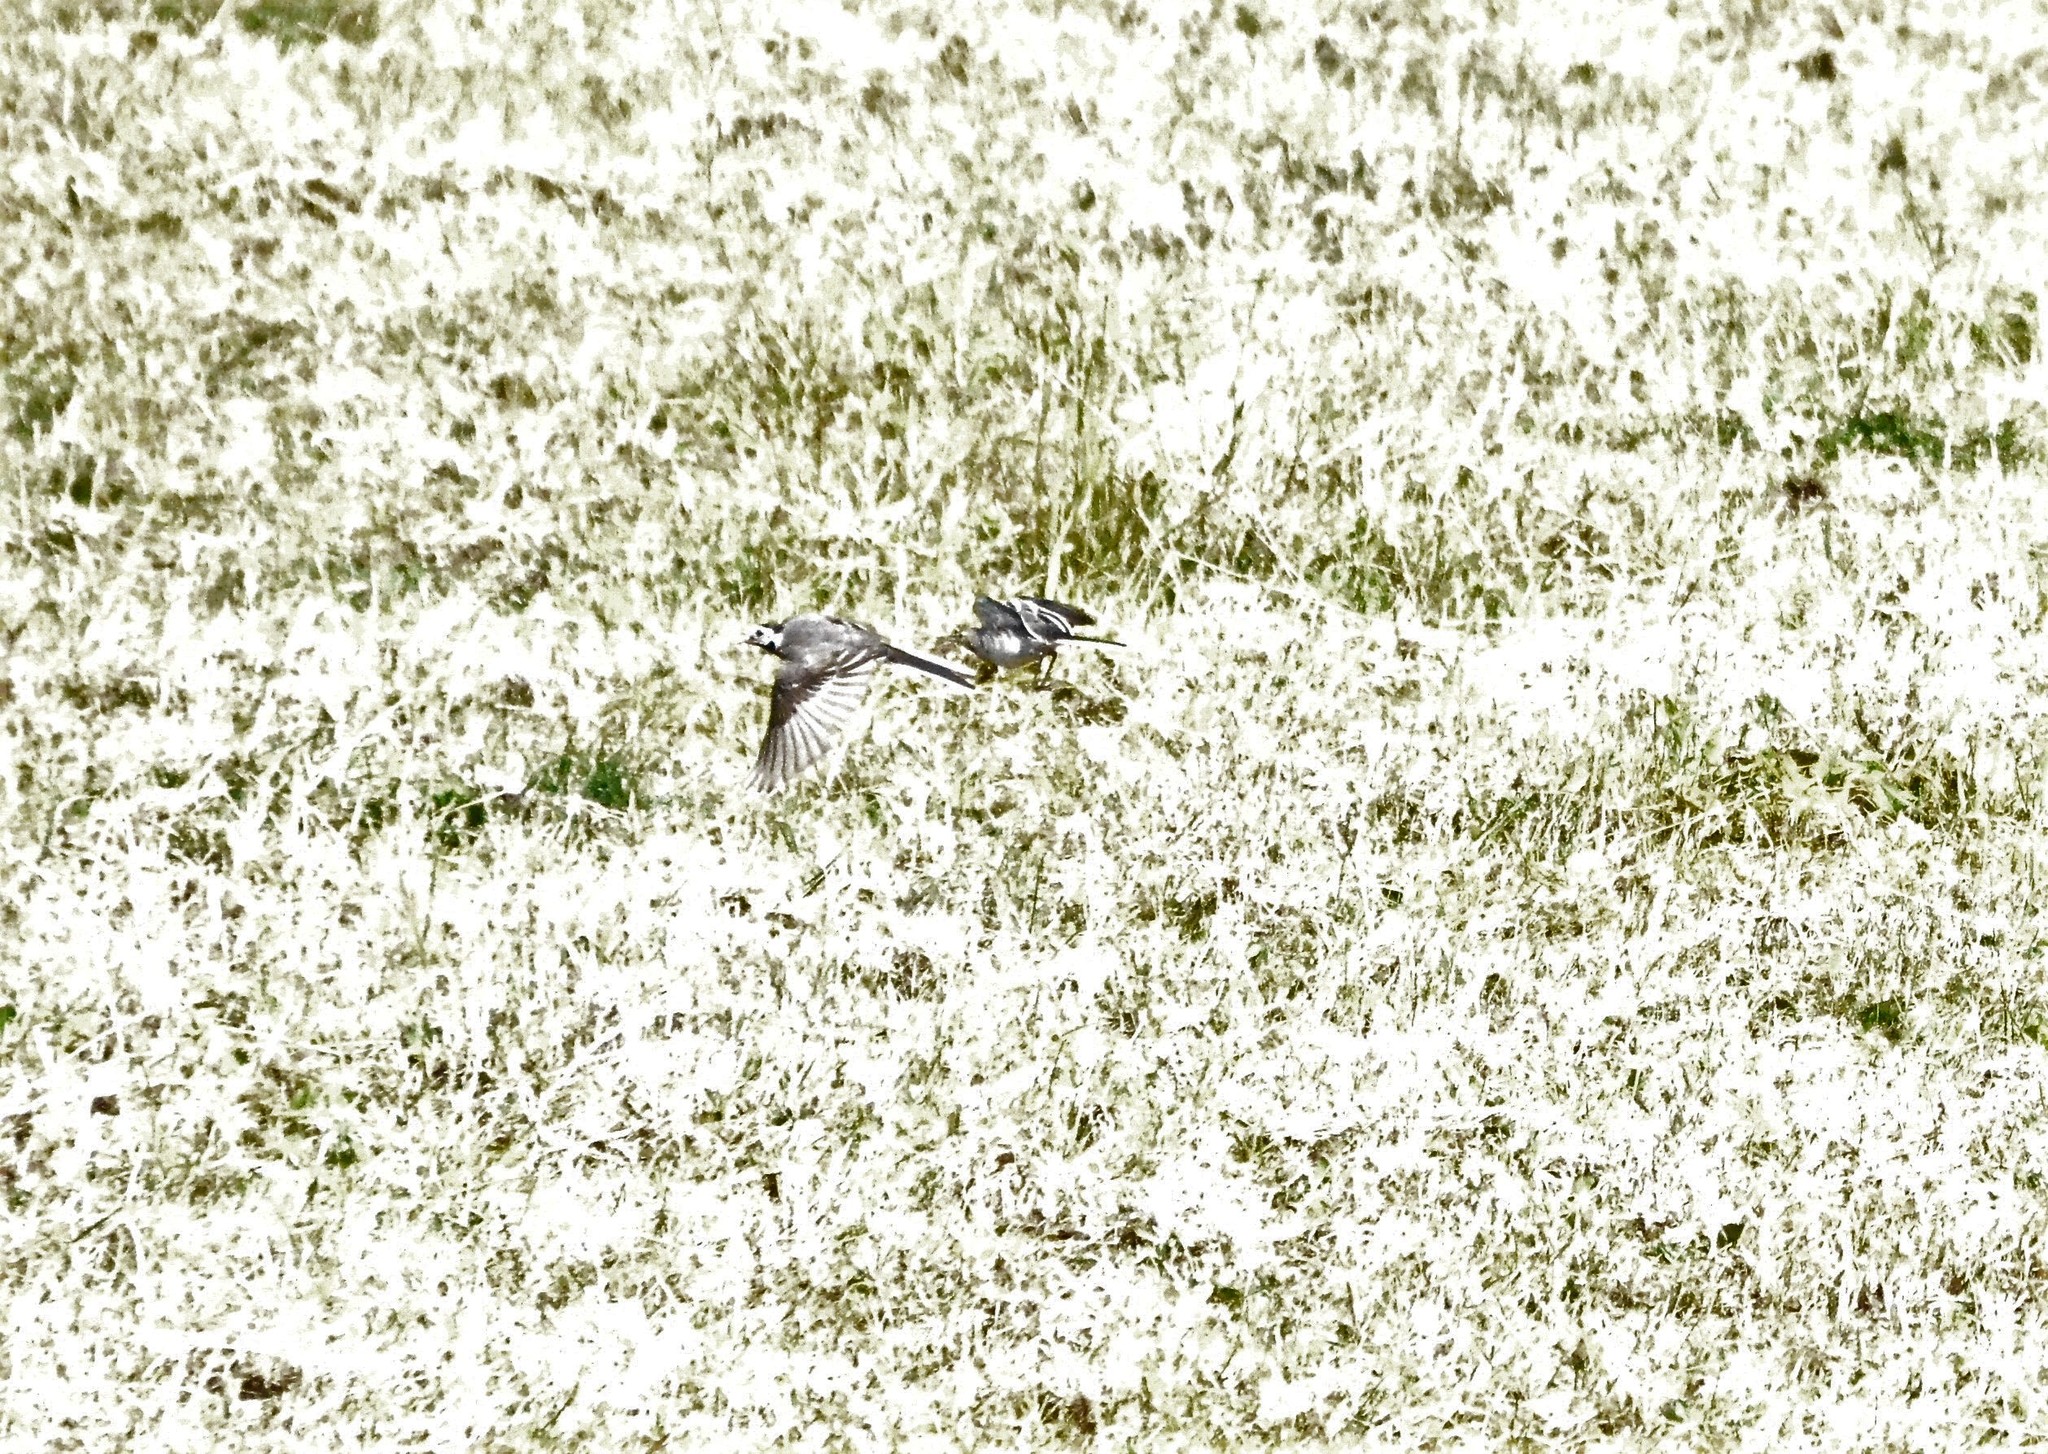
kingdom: Animalia
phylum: Chordata
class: Aves
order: Passeriformes
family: Motacillidae
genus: Motacilla
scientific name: Motacilla alba
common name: White wagtail
